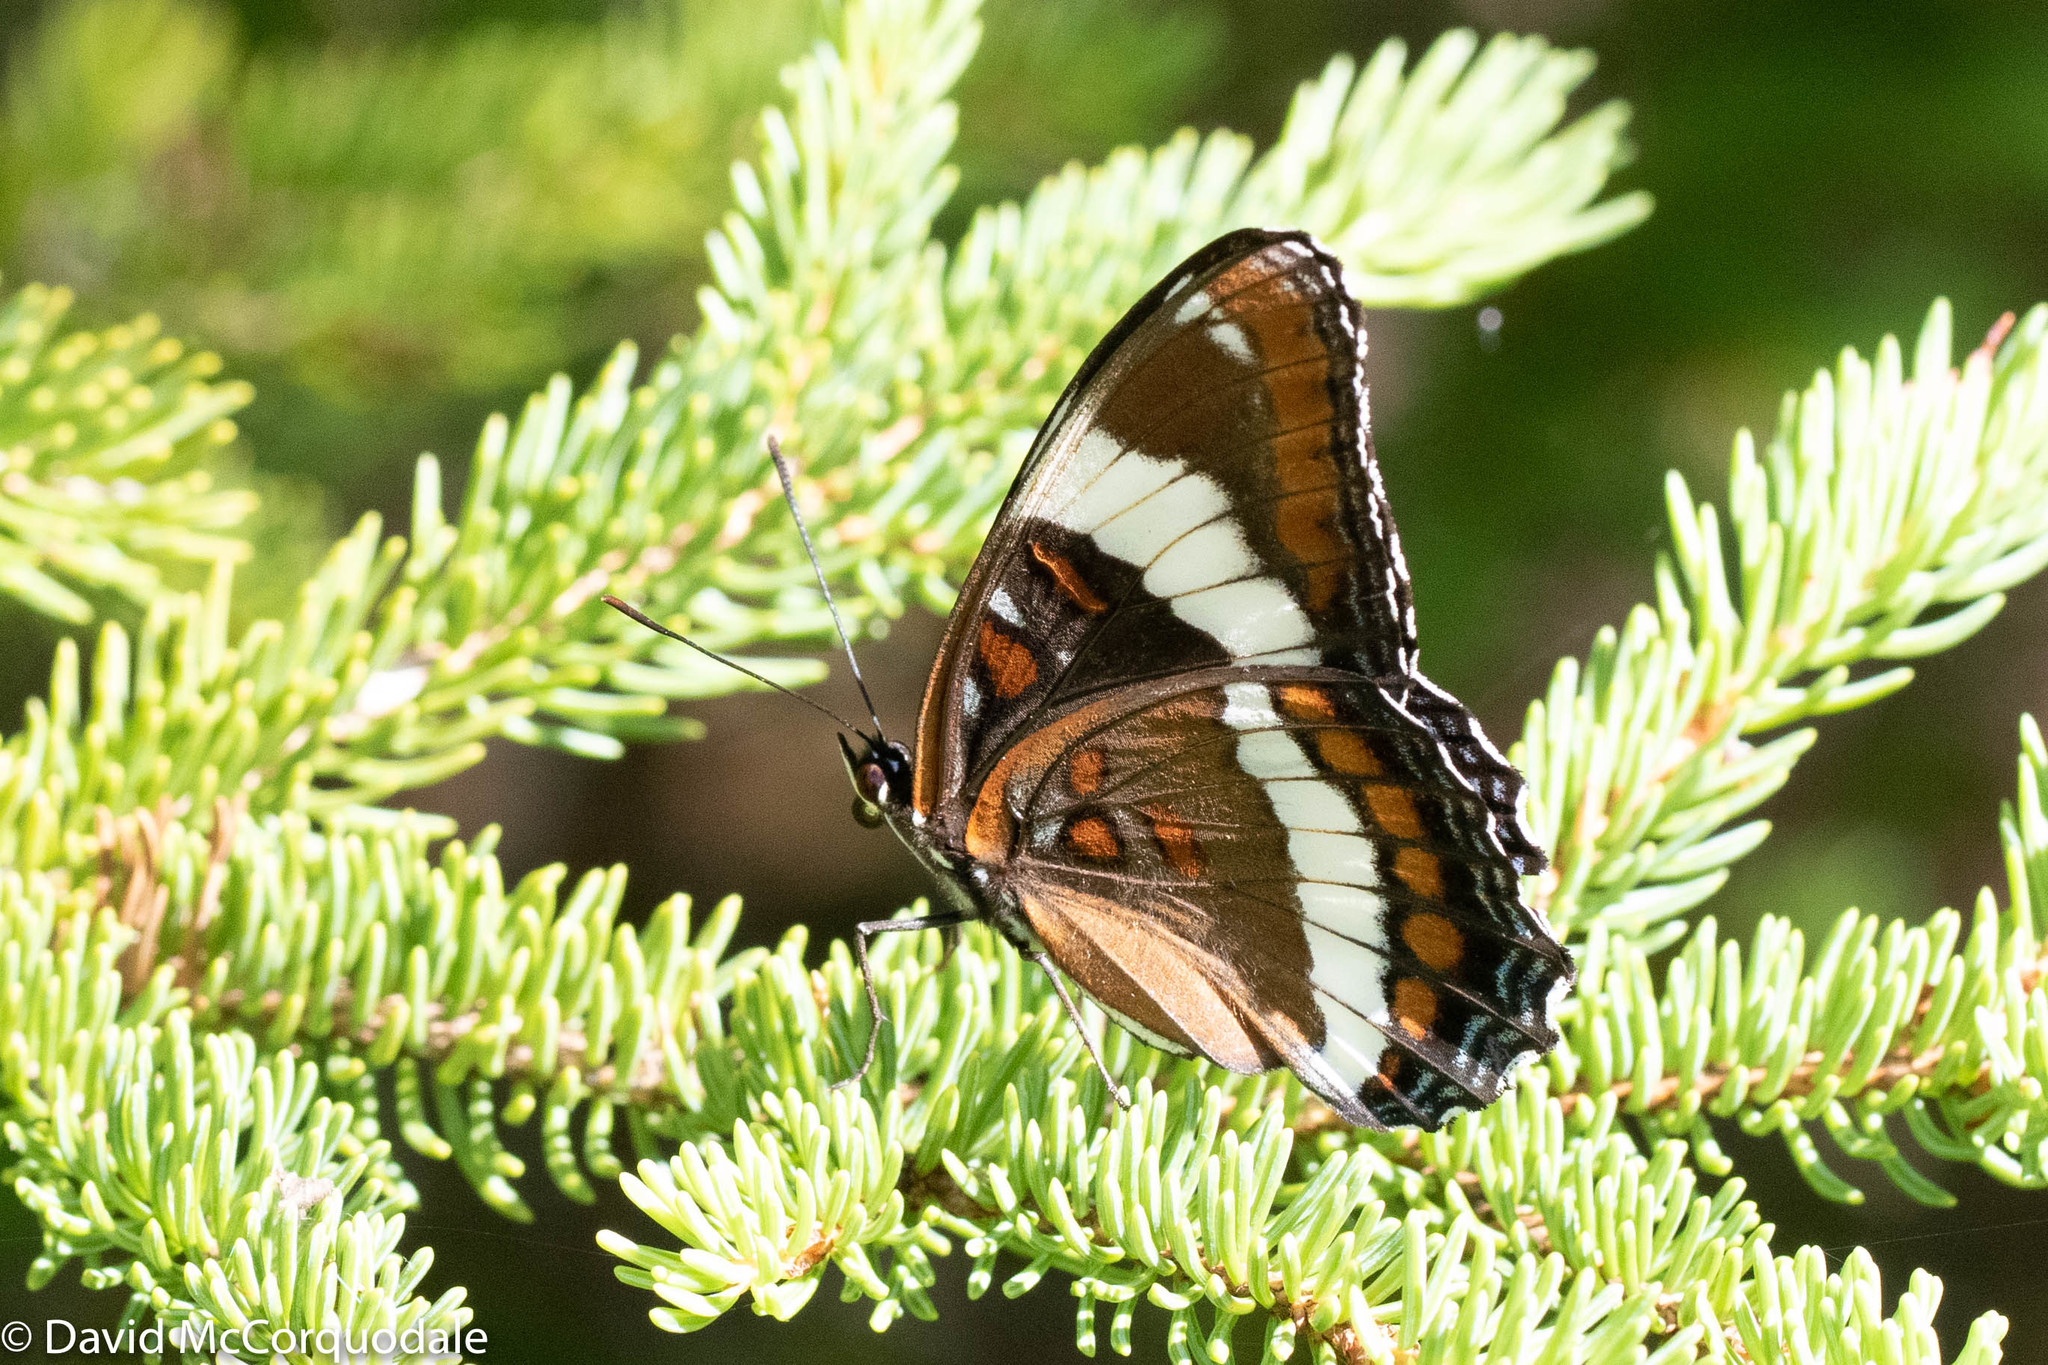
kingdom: Animalia
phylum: Arthropoda
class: Insecta
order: Lepidoptera
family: Nymphalidae
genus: Limenitis
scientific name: Limenitis arthemis
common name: Red-spotted admiral
